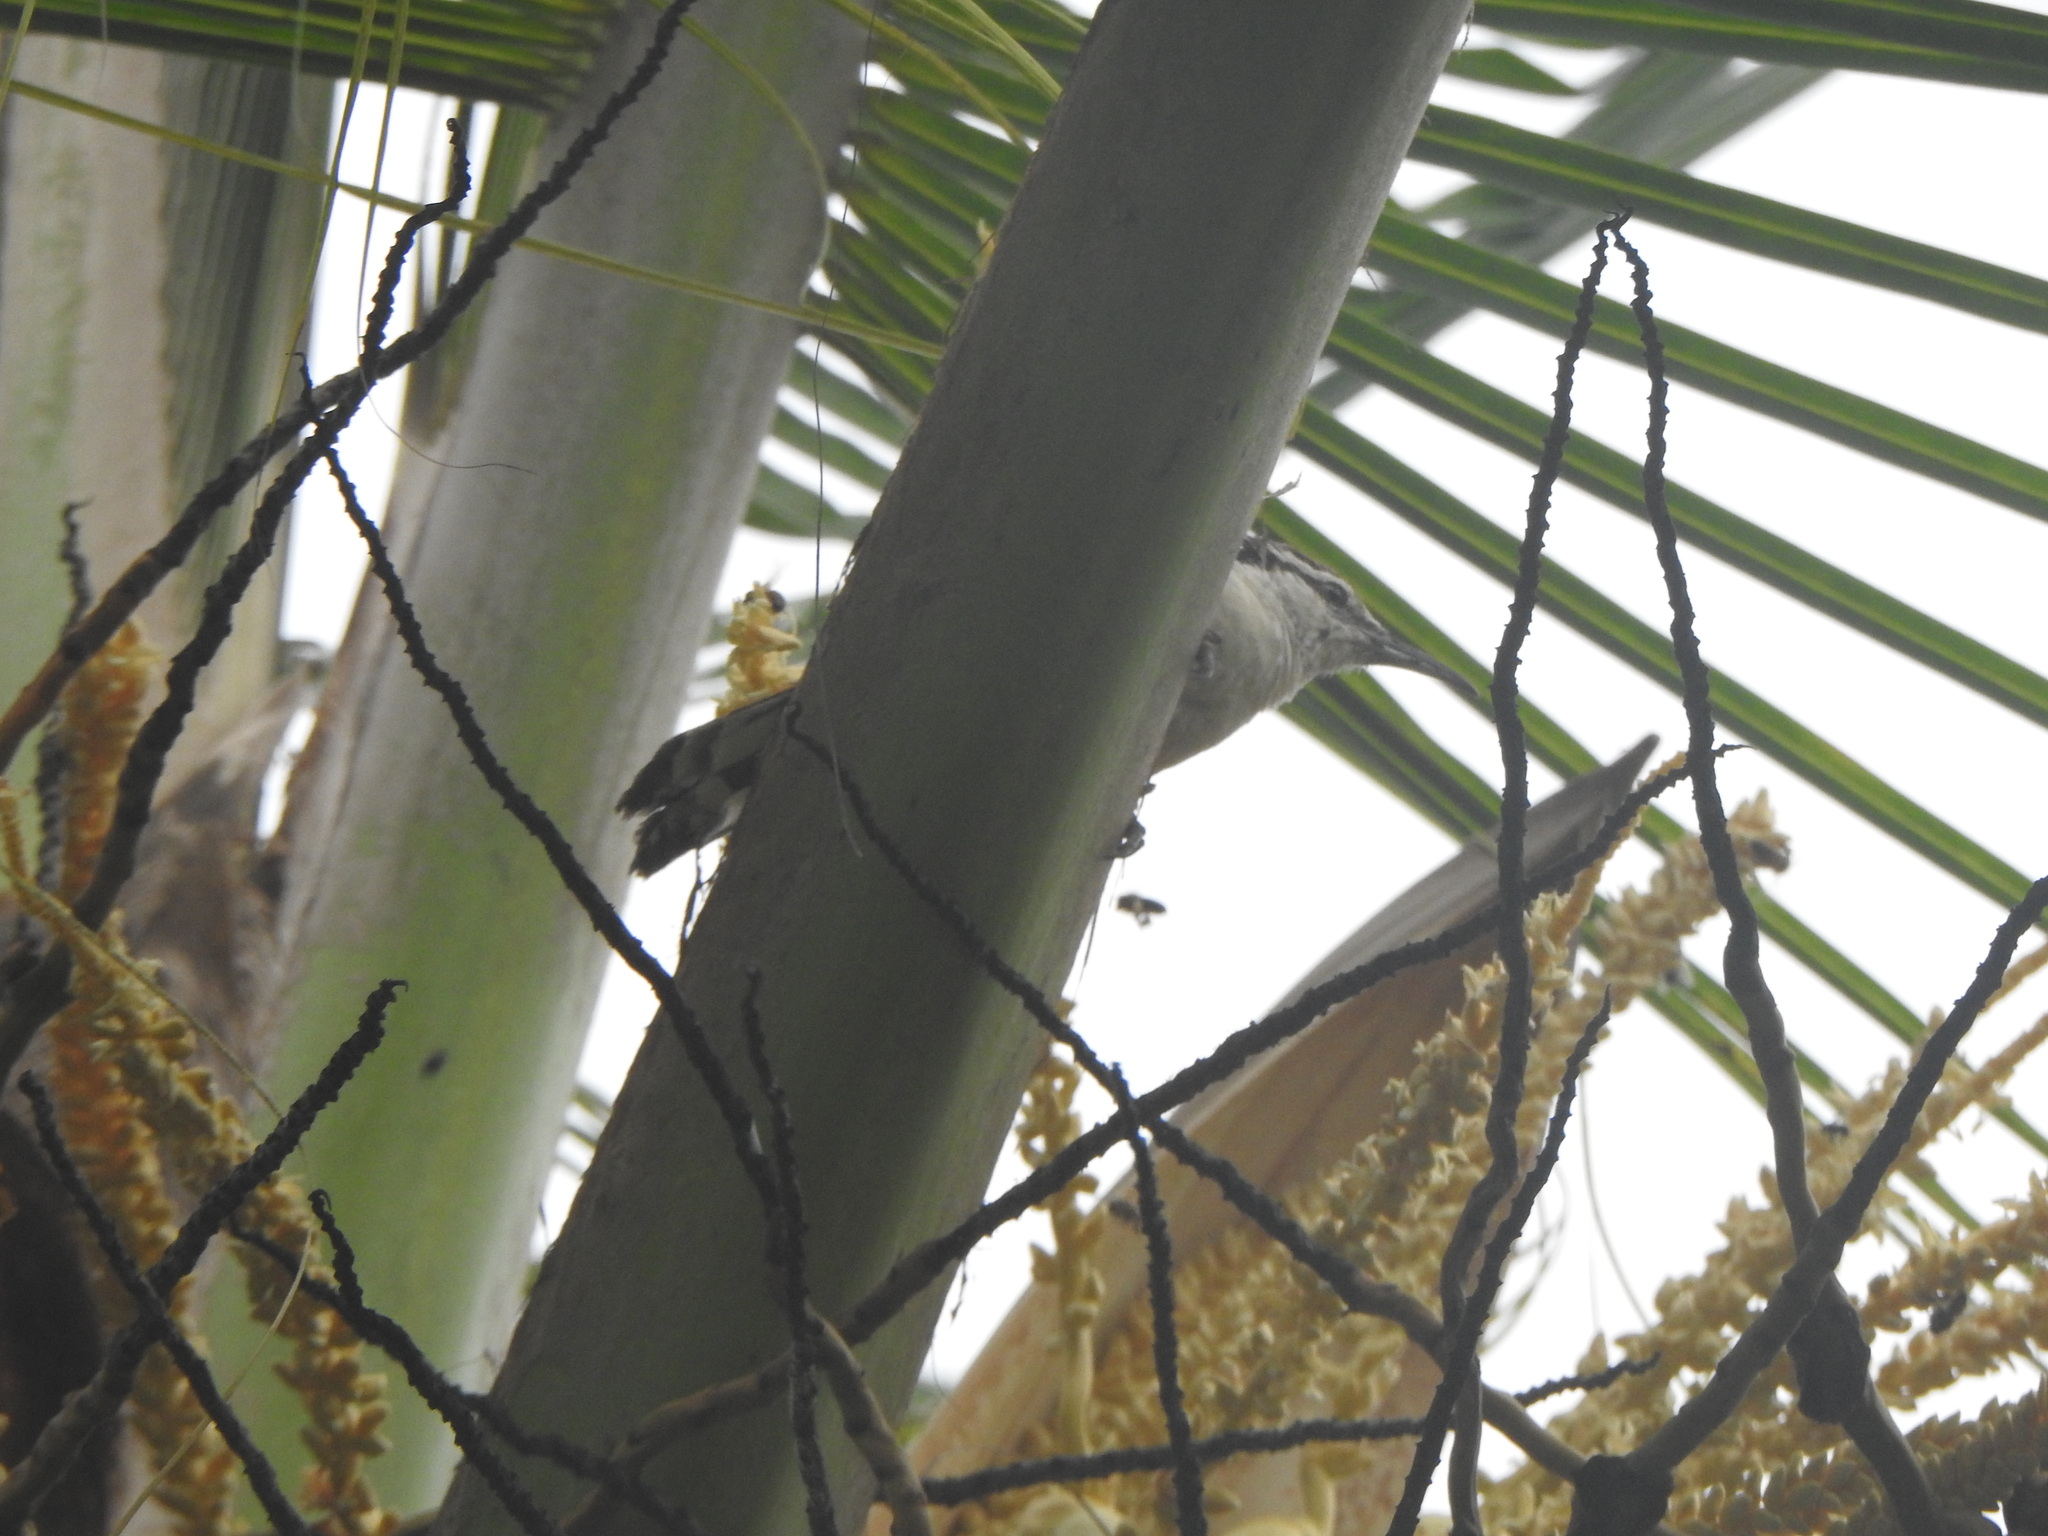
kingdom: Animalia
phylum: Chordata
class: Aves
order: Passeriformes
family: Troglodytidae
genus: Campylorhynchus
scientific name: Campylorhynchus griseus
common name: Bicolored wren
